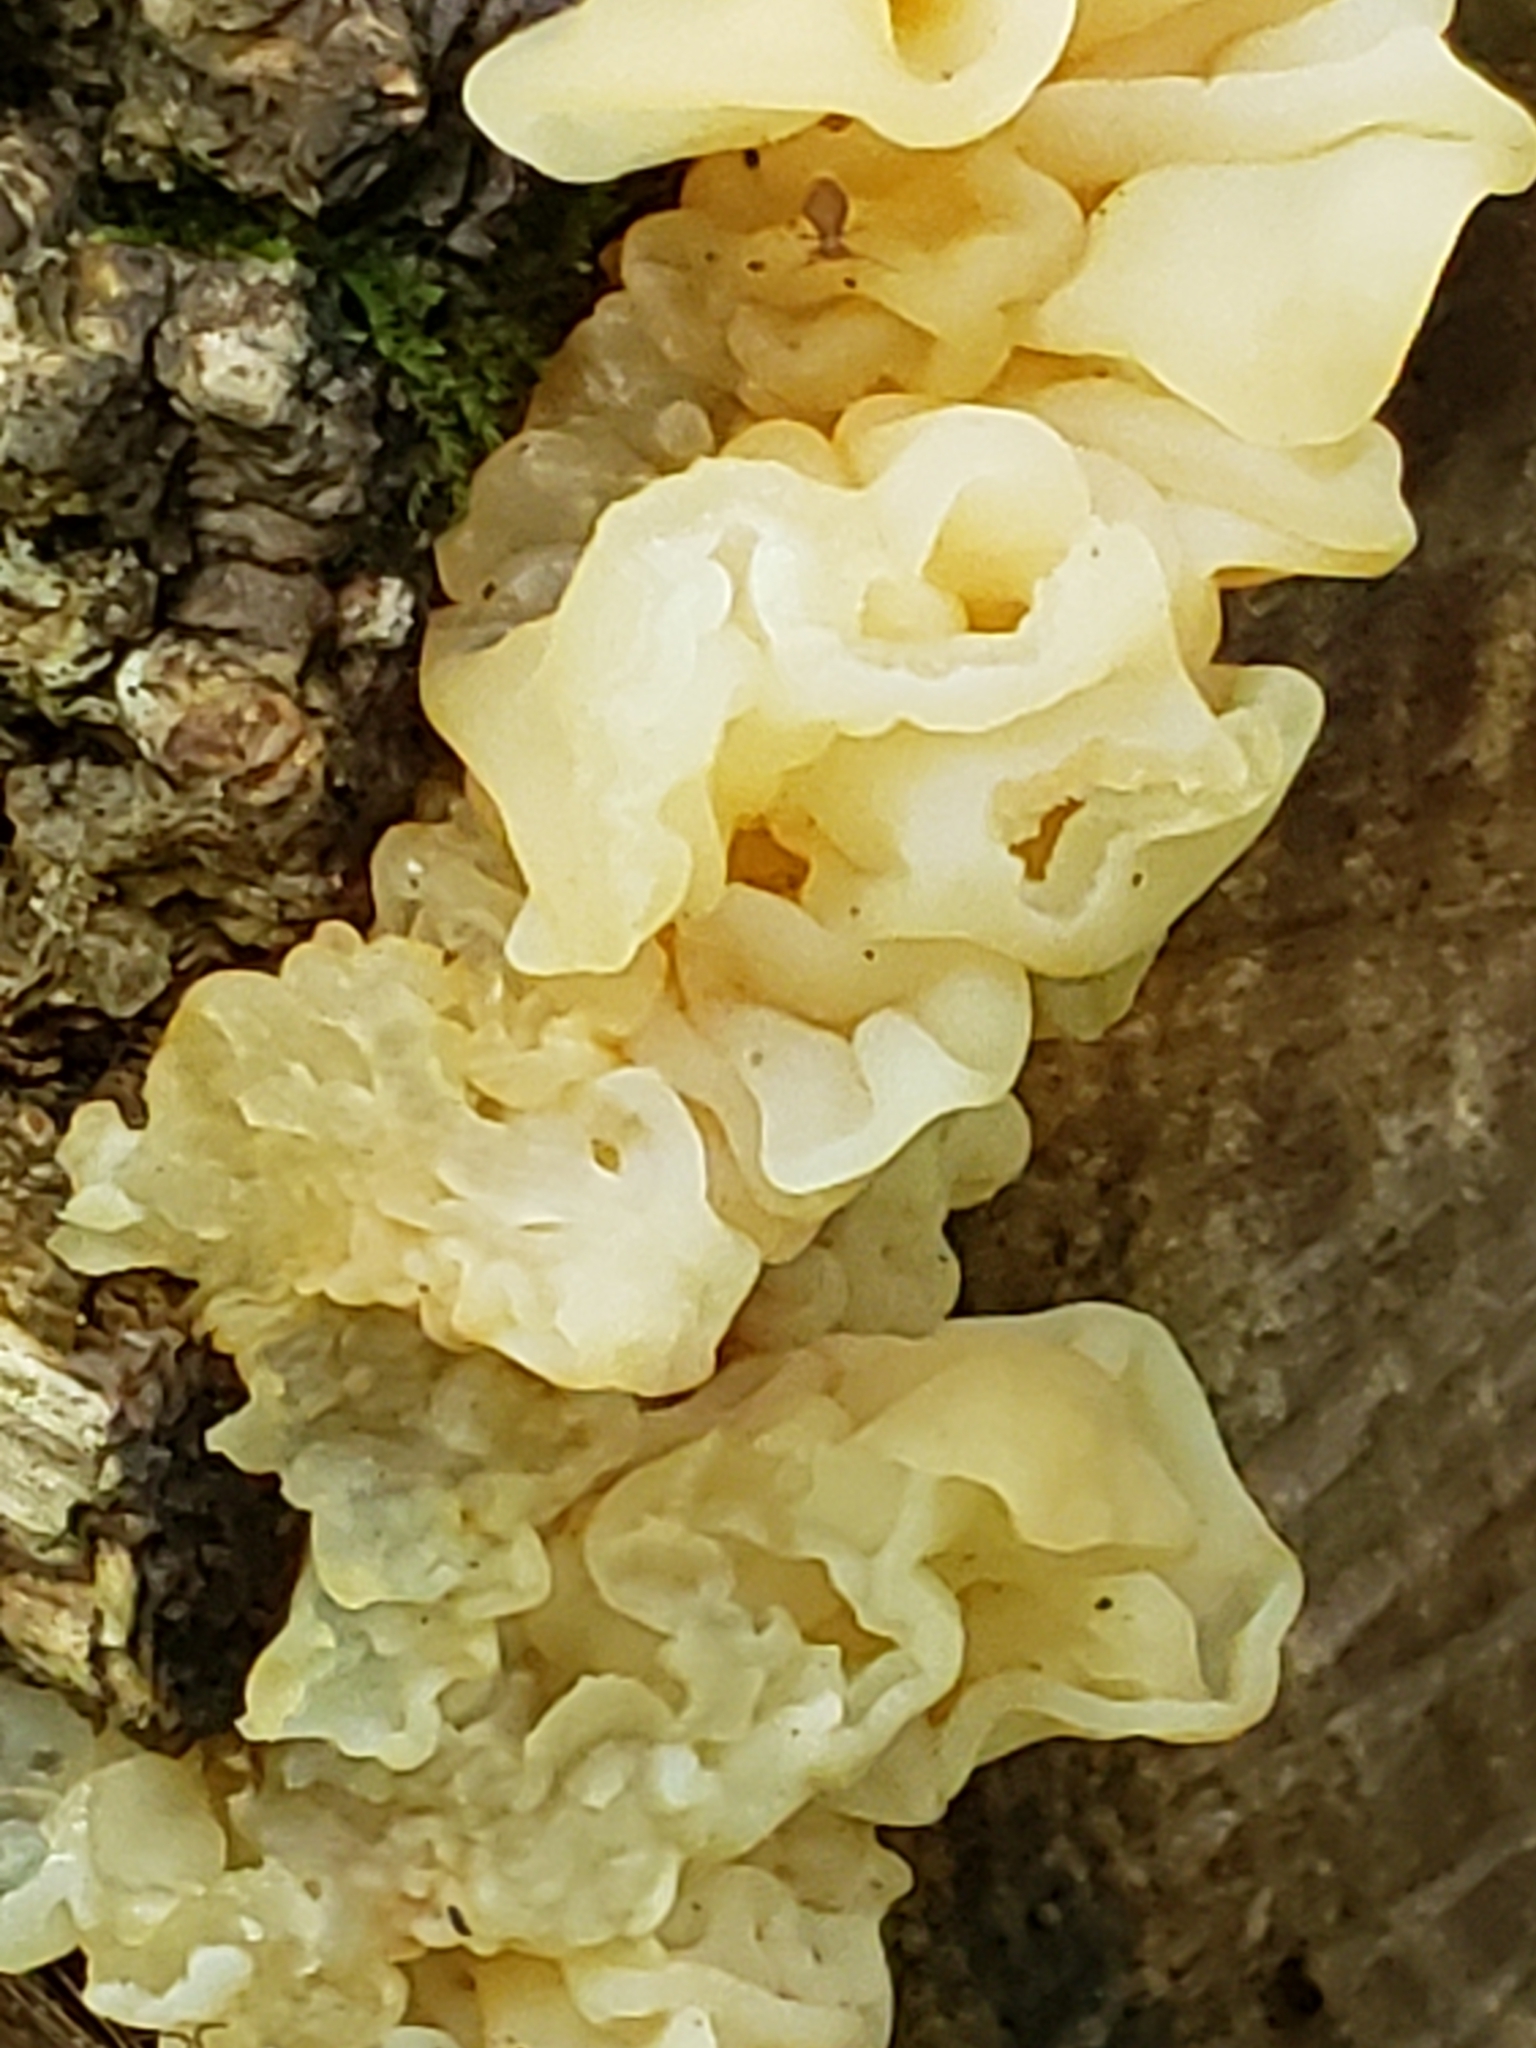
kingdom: Fungi
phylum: Basidiomycota
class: Agaricomycetes
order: Auriculariales
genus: Ductifera
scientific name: Ductifera pululahuana
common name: White jelly fungus
